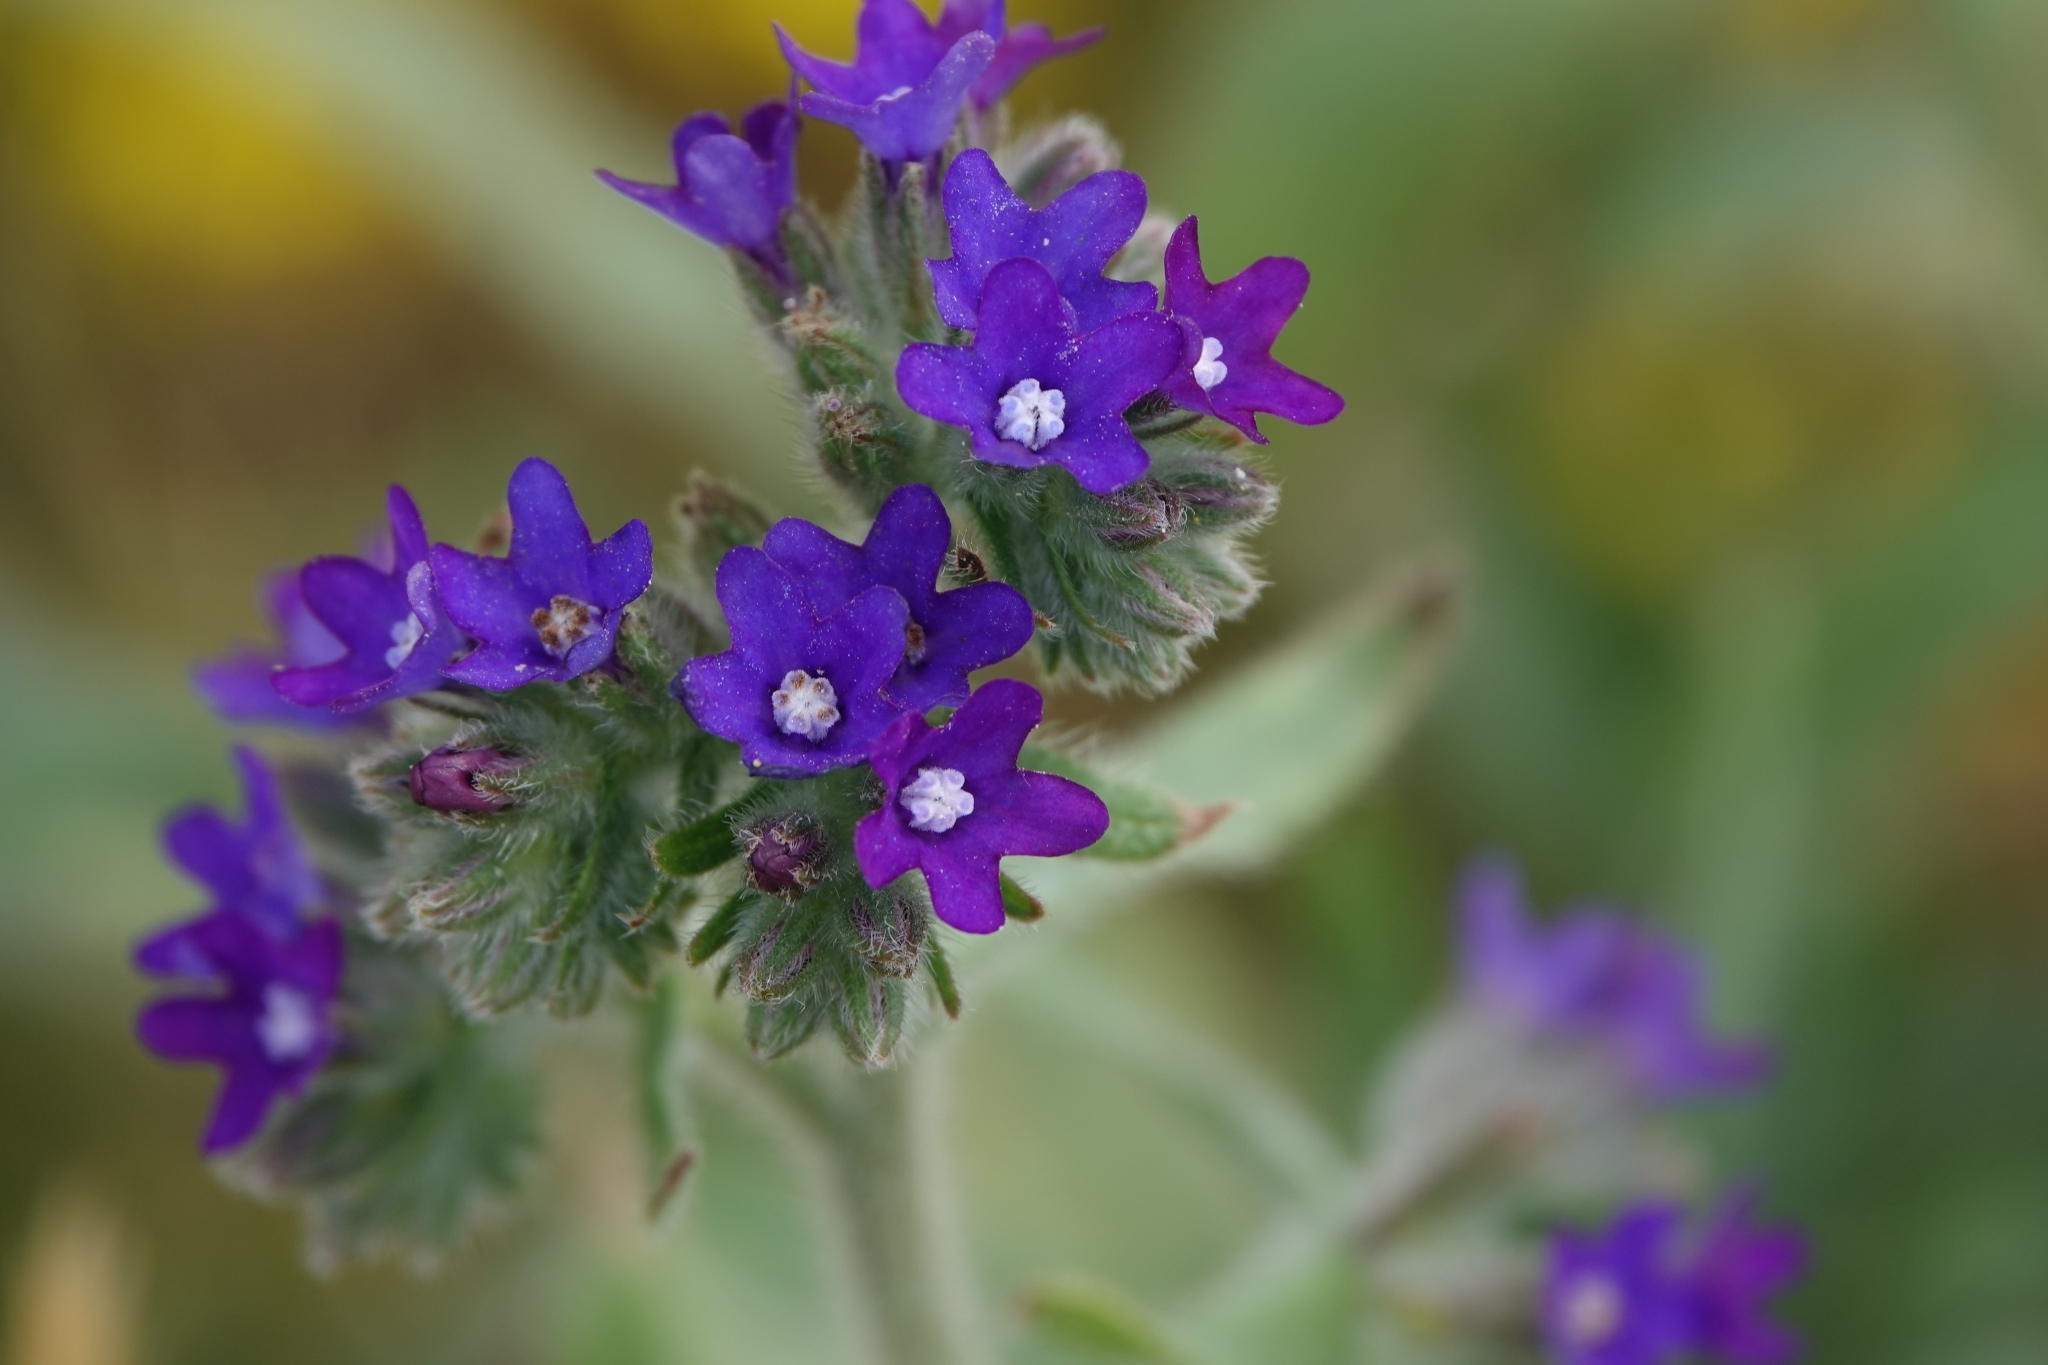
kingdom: Plantae
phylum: Tracheophyta
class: Magnoliopsida
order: Boraginales
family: Boraginaceae
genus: Anchusa
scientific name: Anchusa officinalis
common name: Alkanet
